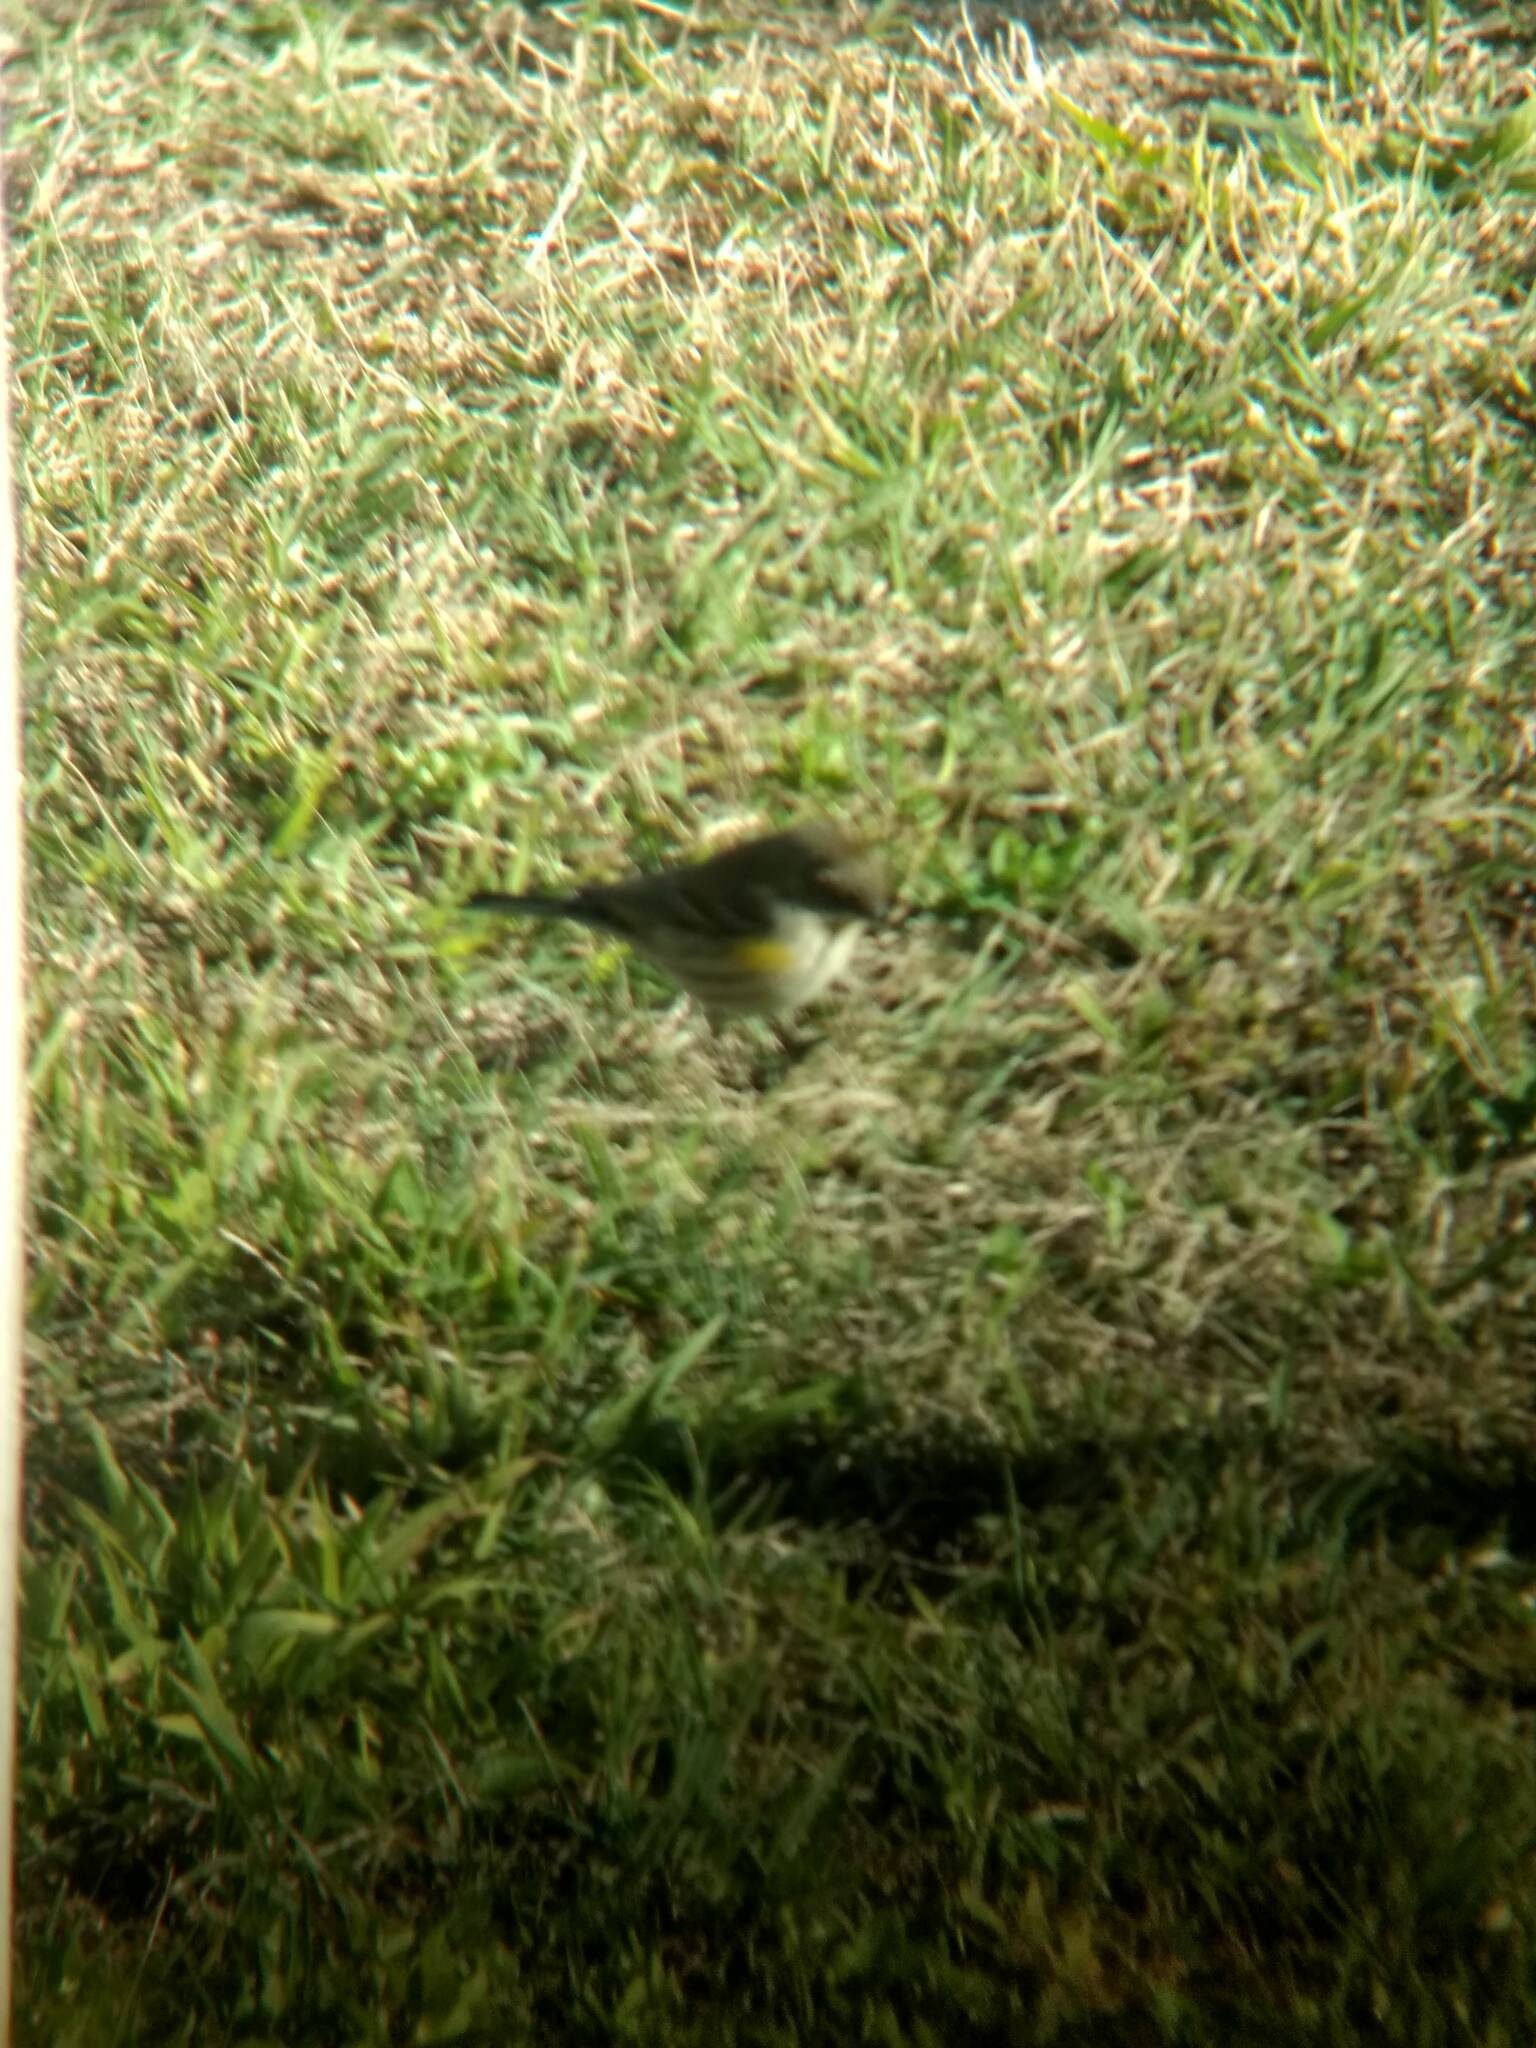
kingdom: Animalia
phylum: Chordata
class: Aves
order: Passeriformes
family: Parulidae
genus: Setophaga
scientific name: Setophaga coronata
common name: Myrtle warbler
